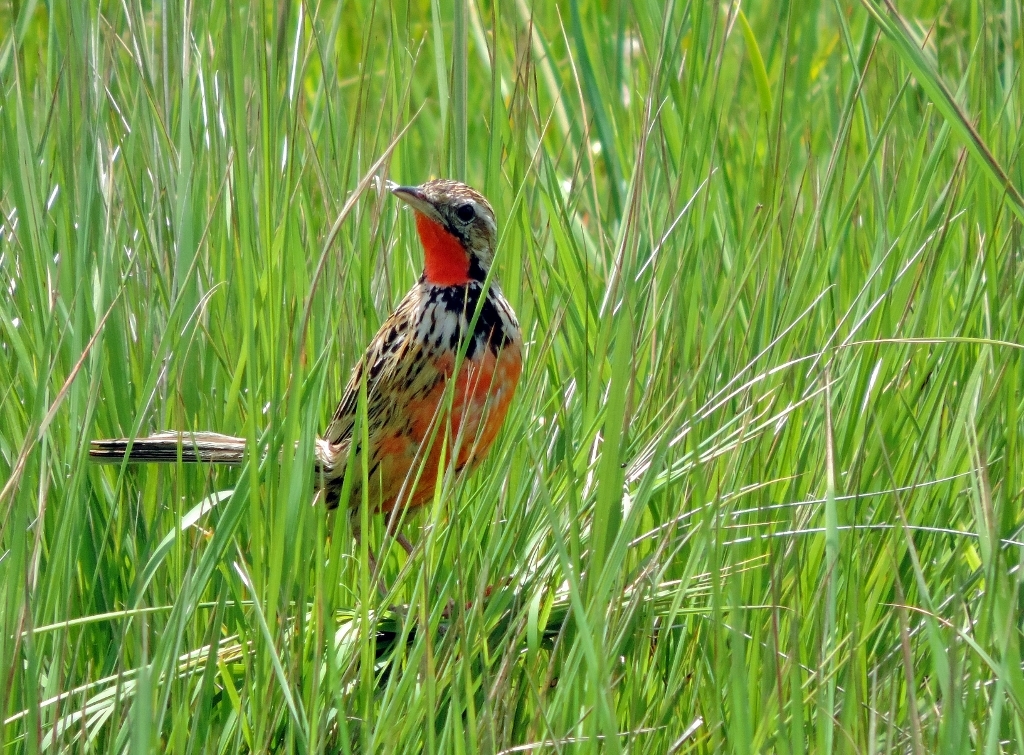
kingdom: Animalia
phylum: Chordata
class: Aves
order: Passeriformes
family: Motacillidae
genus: Macronyx
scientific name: Macronyx ameliae
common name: Rosy-throated longclaw
